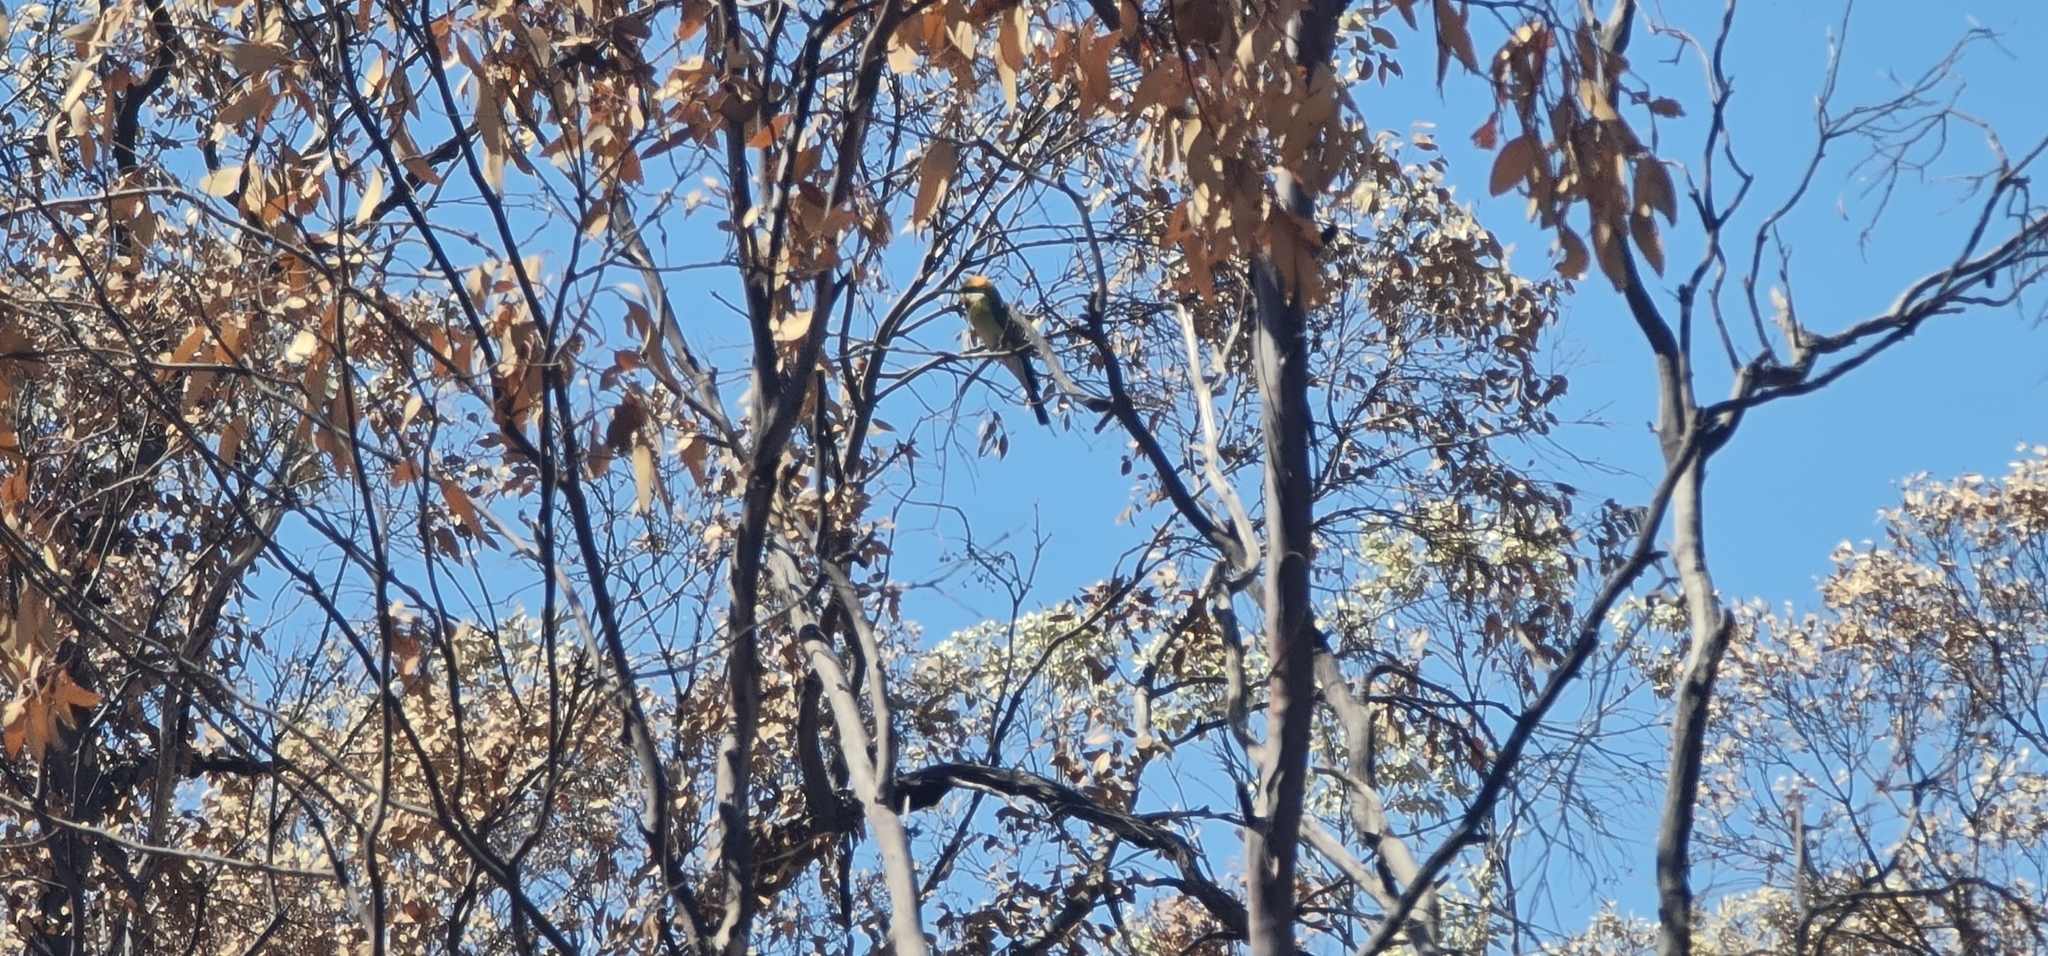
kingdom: Animalia
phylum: Chordata
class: Aves
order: Coraciiformes
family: Meropidae
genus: Merops
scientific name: Merops ornatus
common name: Rainbow bee-eater
